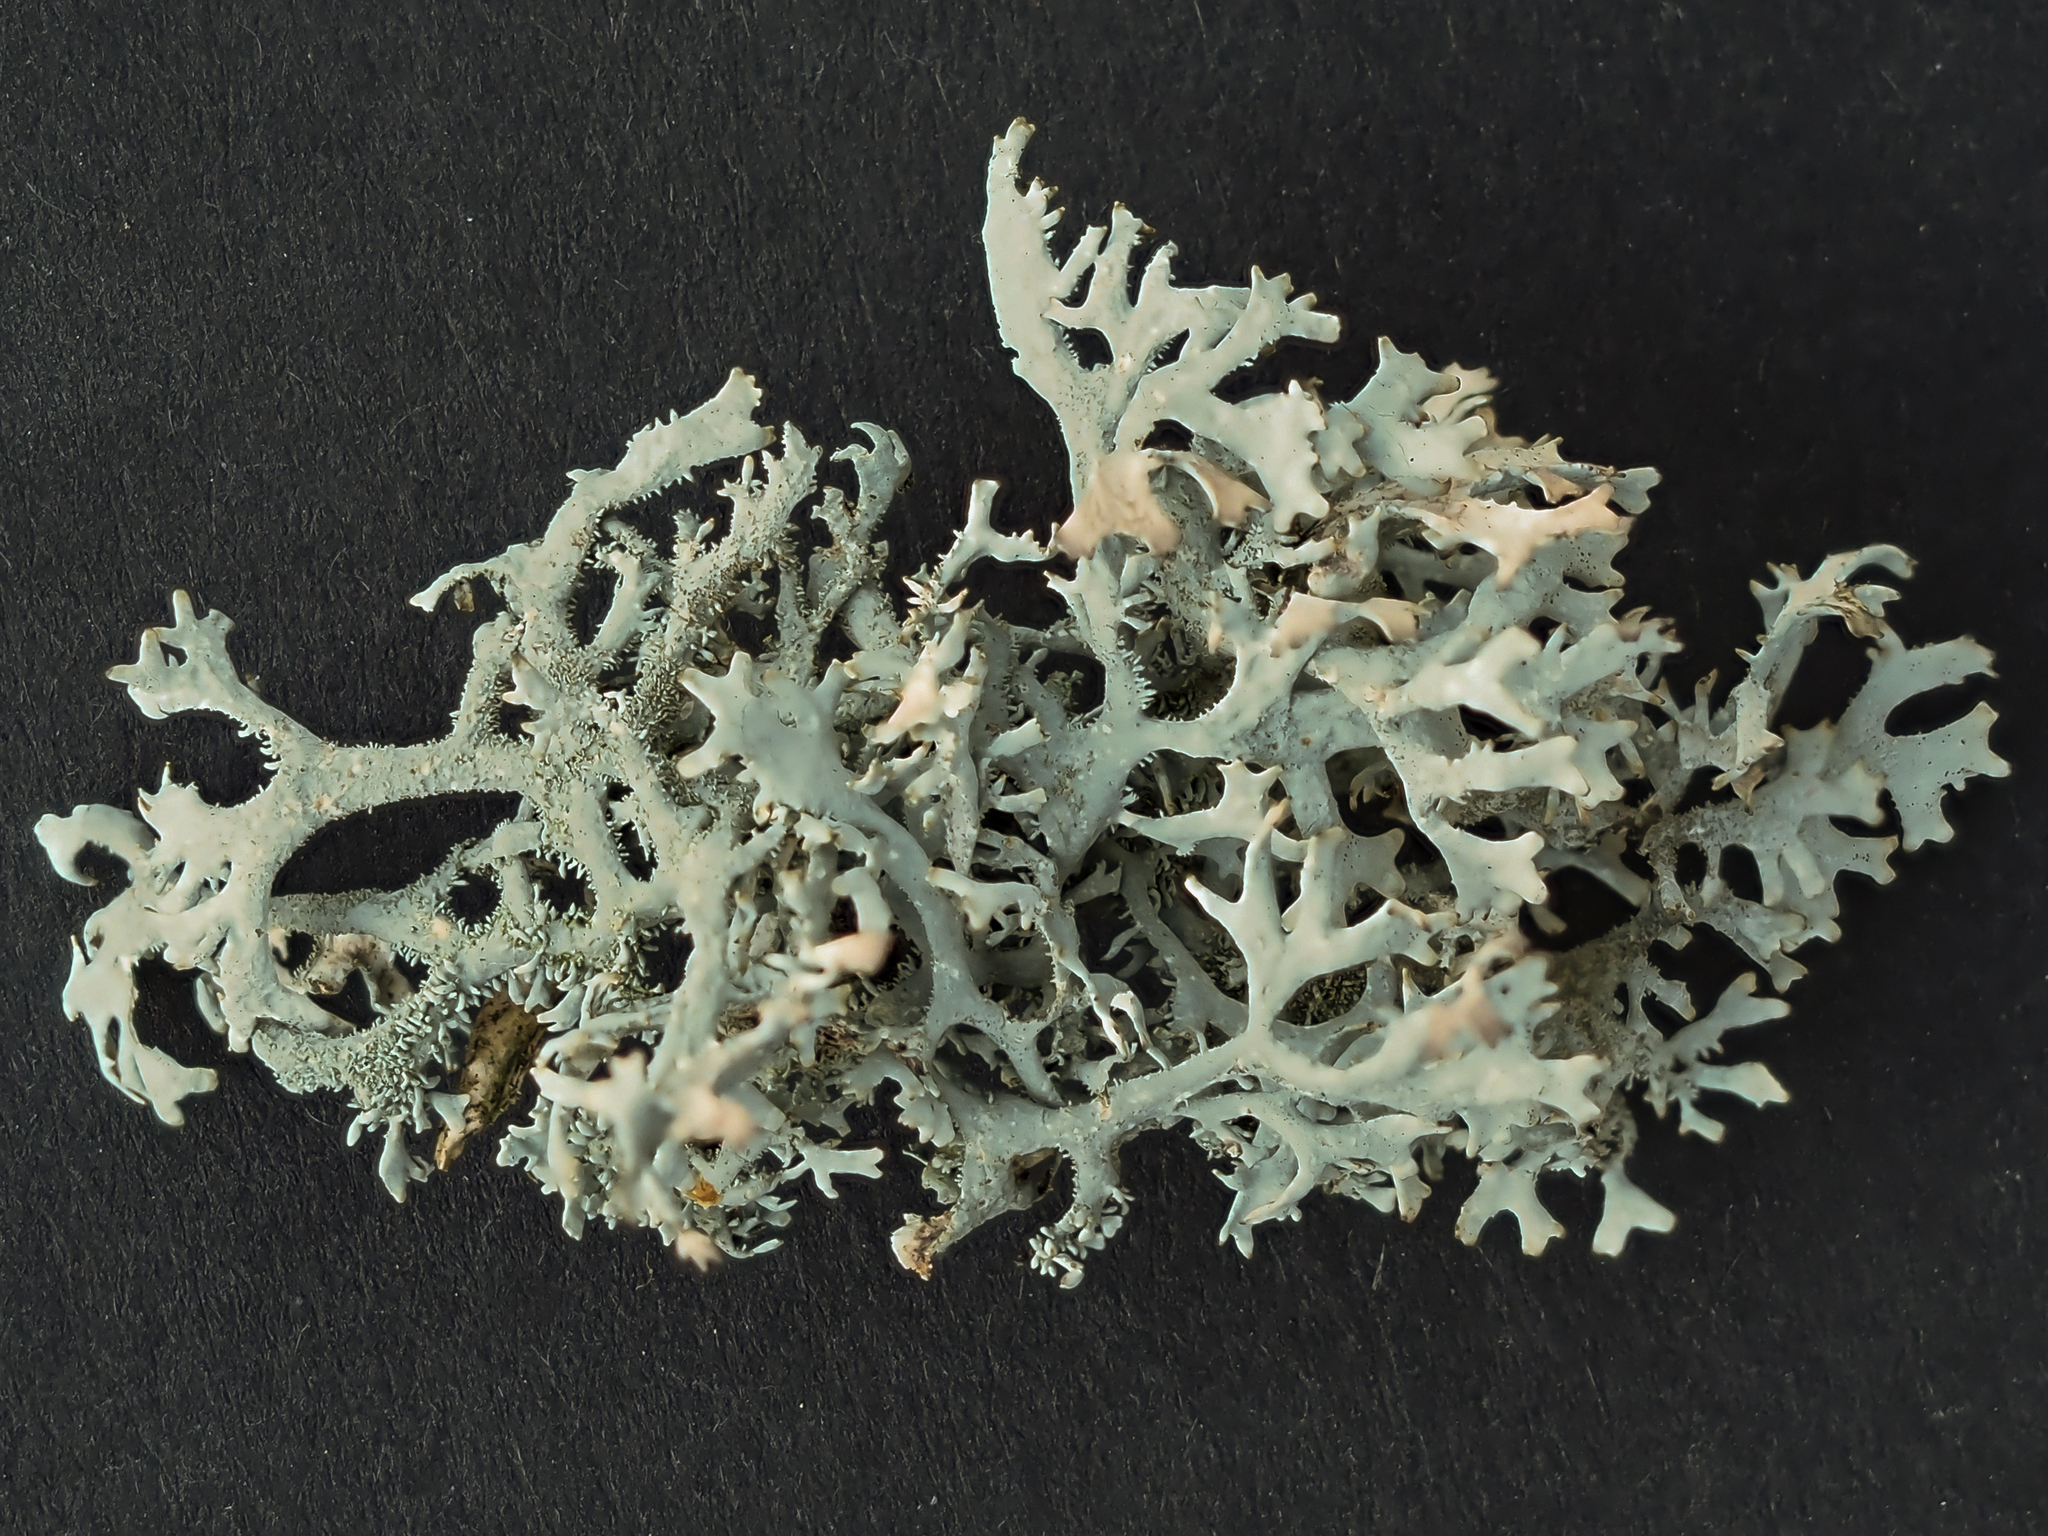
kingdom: Fungi
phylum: Ascomycota
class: Lecanoromycetes
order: Lecanorales
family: Parmeliaceae
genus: Pseudevernia
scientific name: Pseudevernia furfuracea
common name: Tree moss
